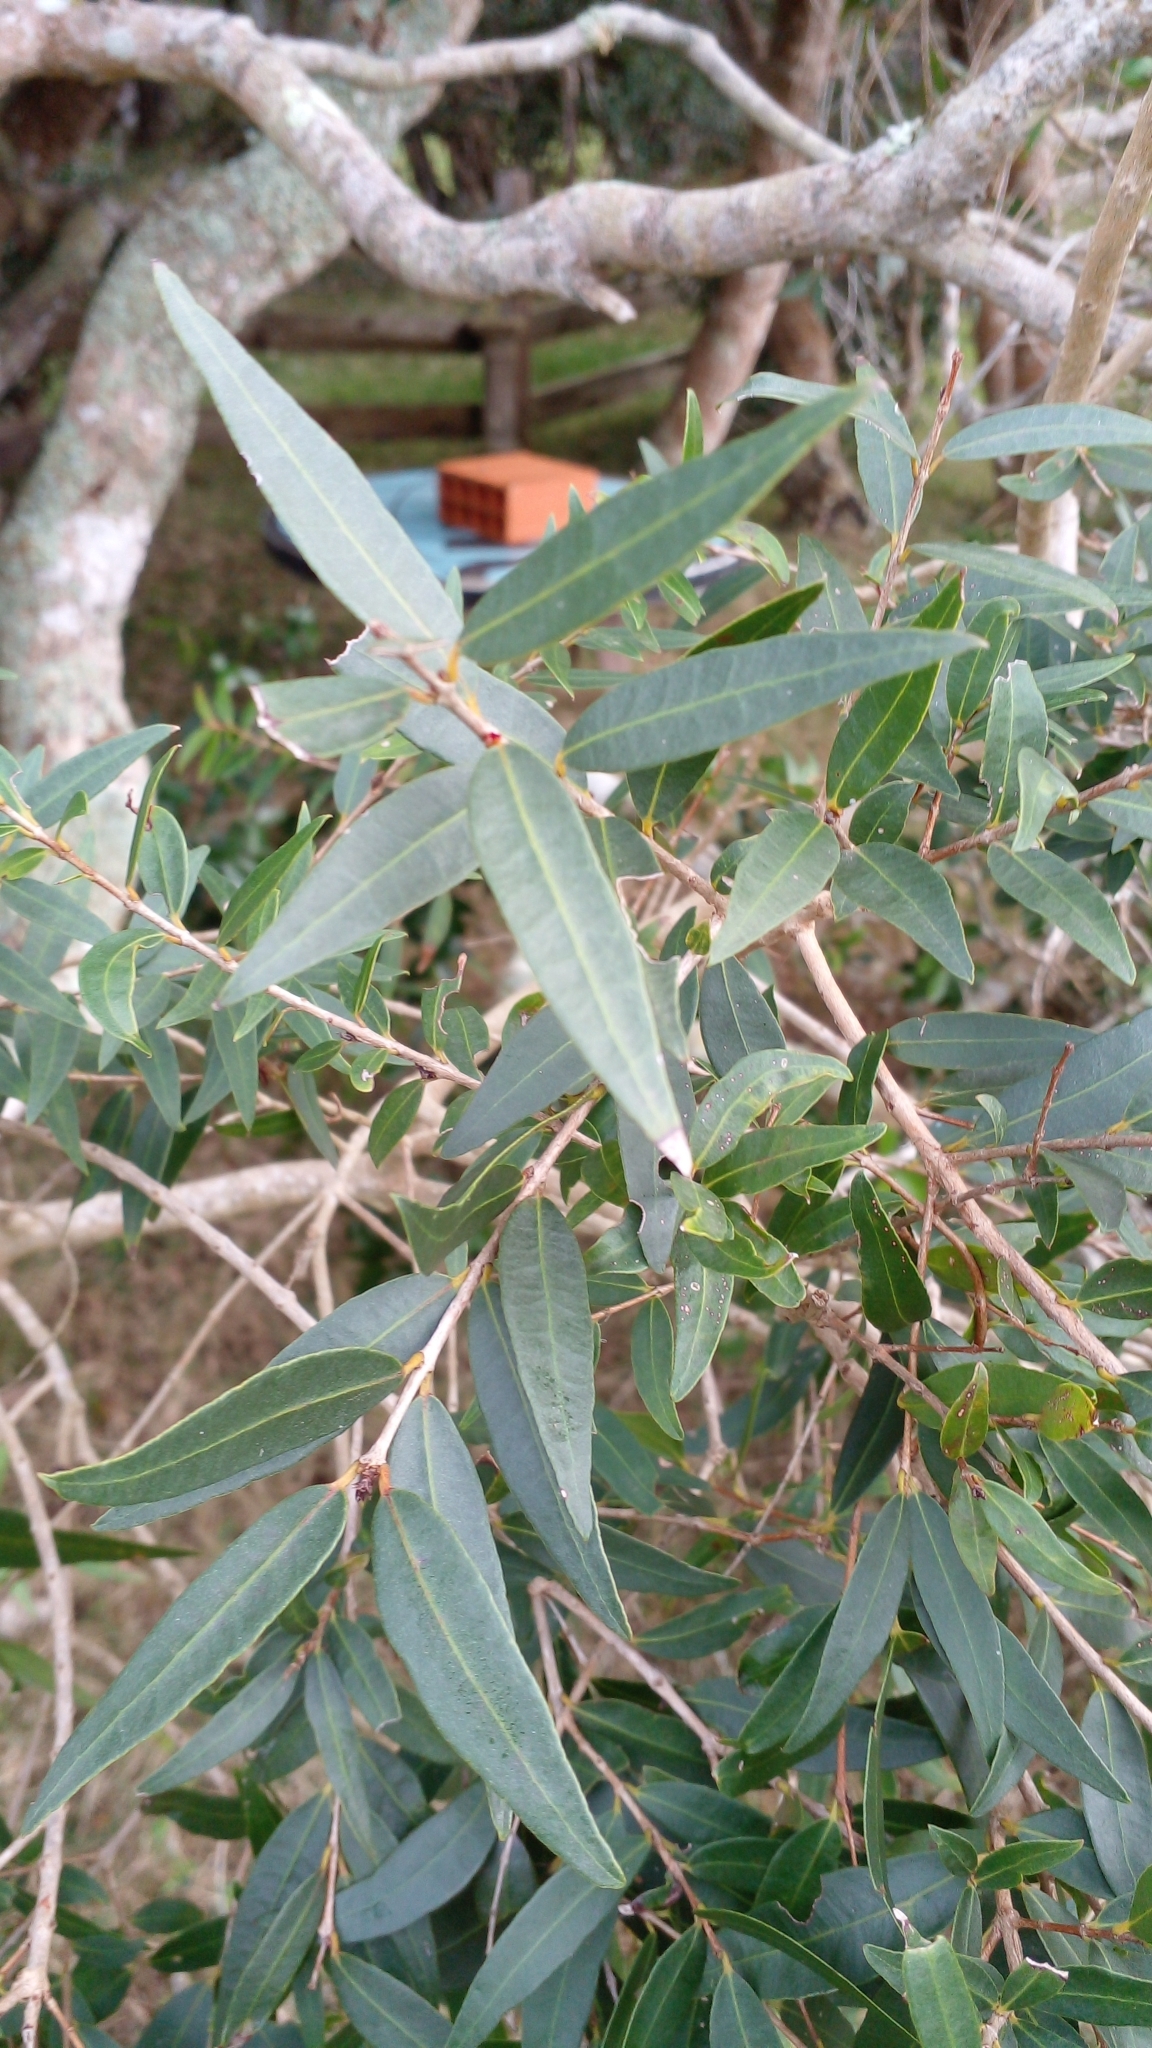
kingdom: Plantae
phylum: Tracheophyta
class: Magnoliopsida
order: Myrtales
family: Myrtaceae
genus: Blepharocalyx
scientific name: Blepharocalyx salicifolius
